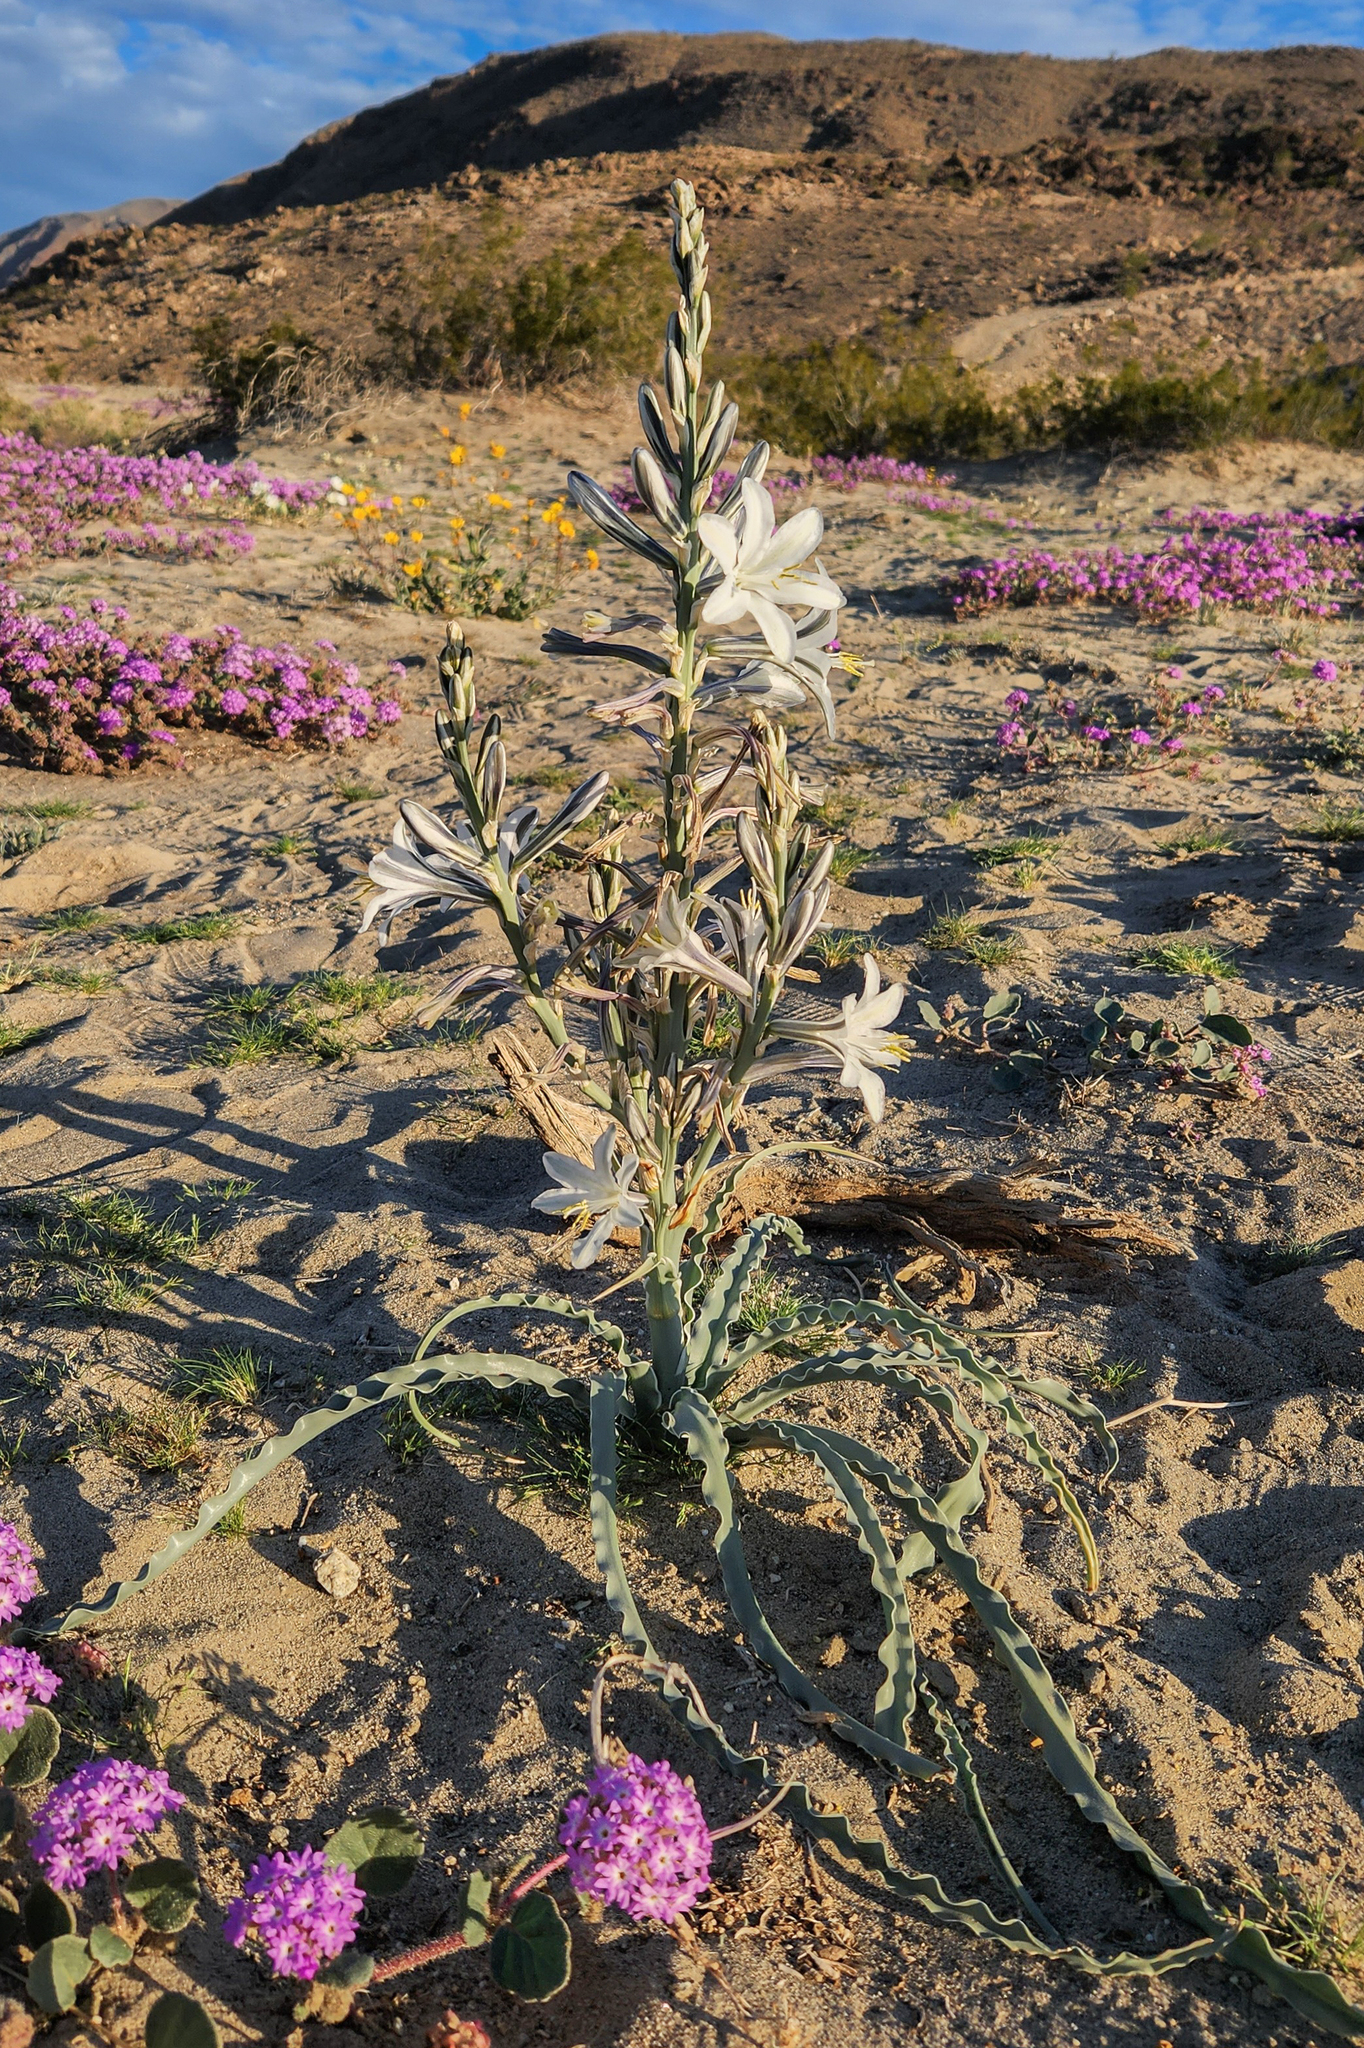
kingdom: Plantae
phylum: Tracheophyta
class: Liliopsida
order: Asparagales
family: Asparagaceae
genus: Hesperocallis
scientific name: Hesperocallis undulata
